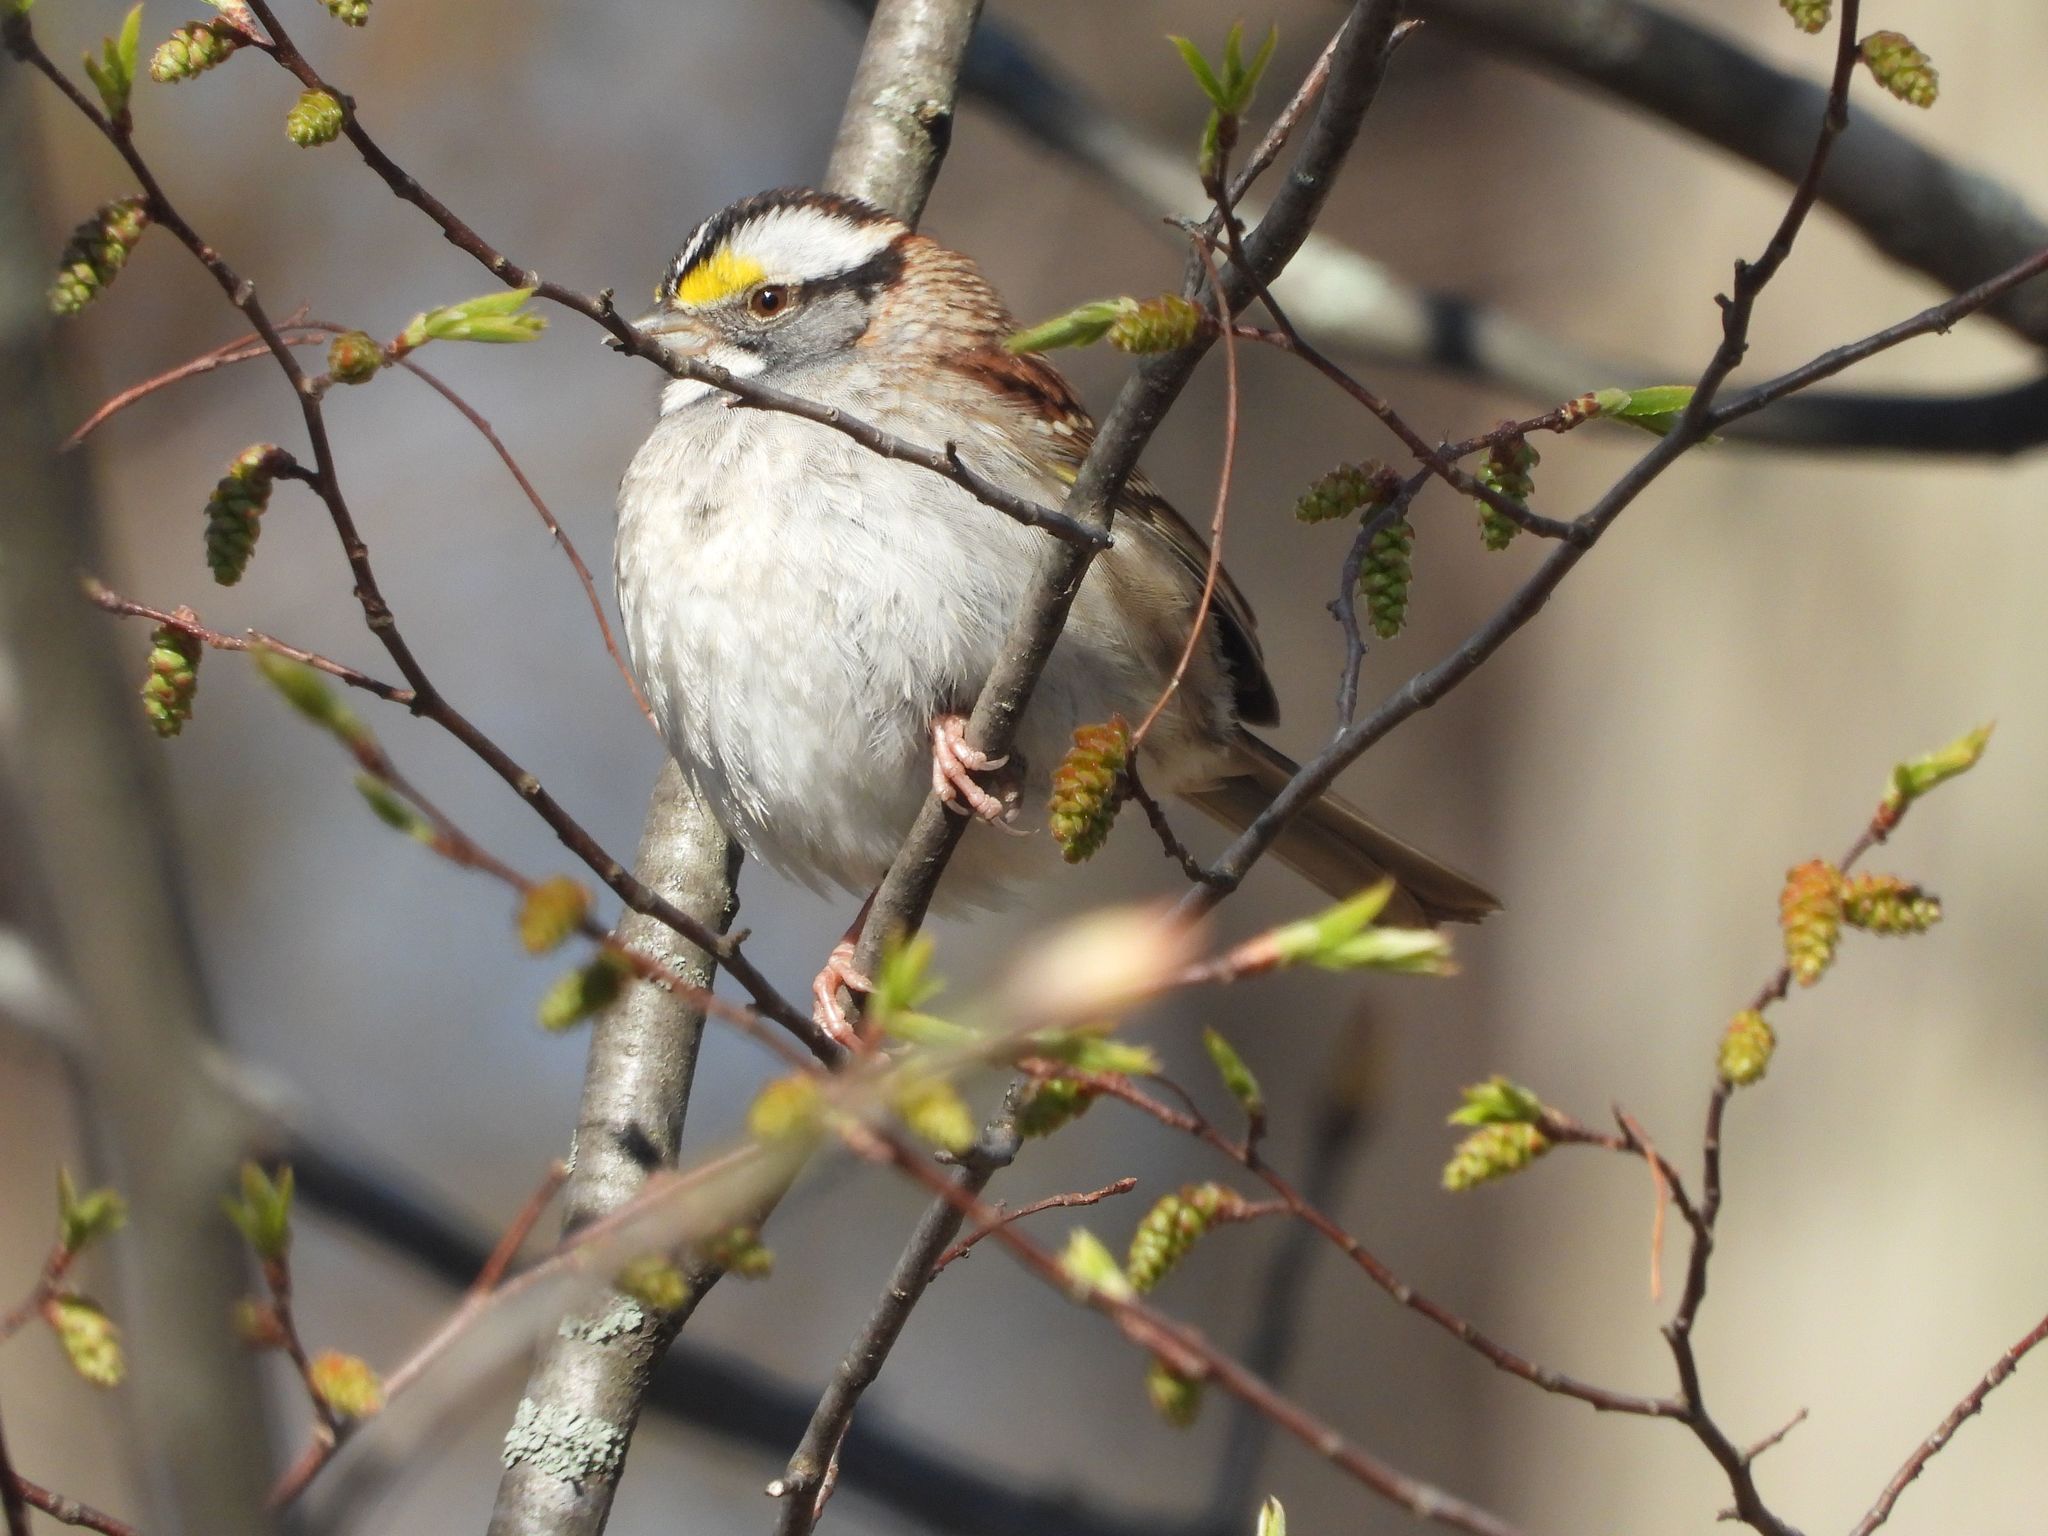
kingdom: Animalia
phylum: Chordata
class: Aves
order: Passeriformes
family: Passerellidae
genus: Zonotrichia
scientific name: Zonotrichia albicollis
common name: White-throated sparrow
